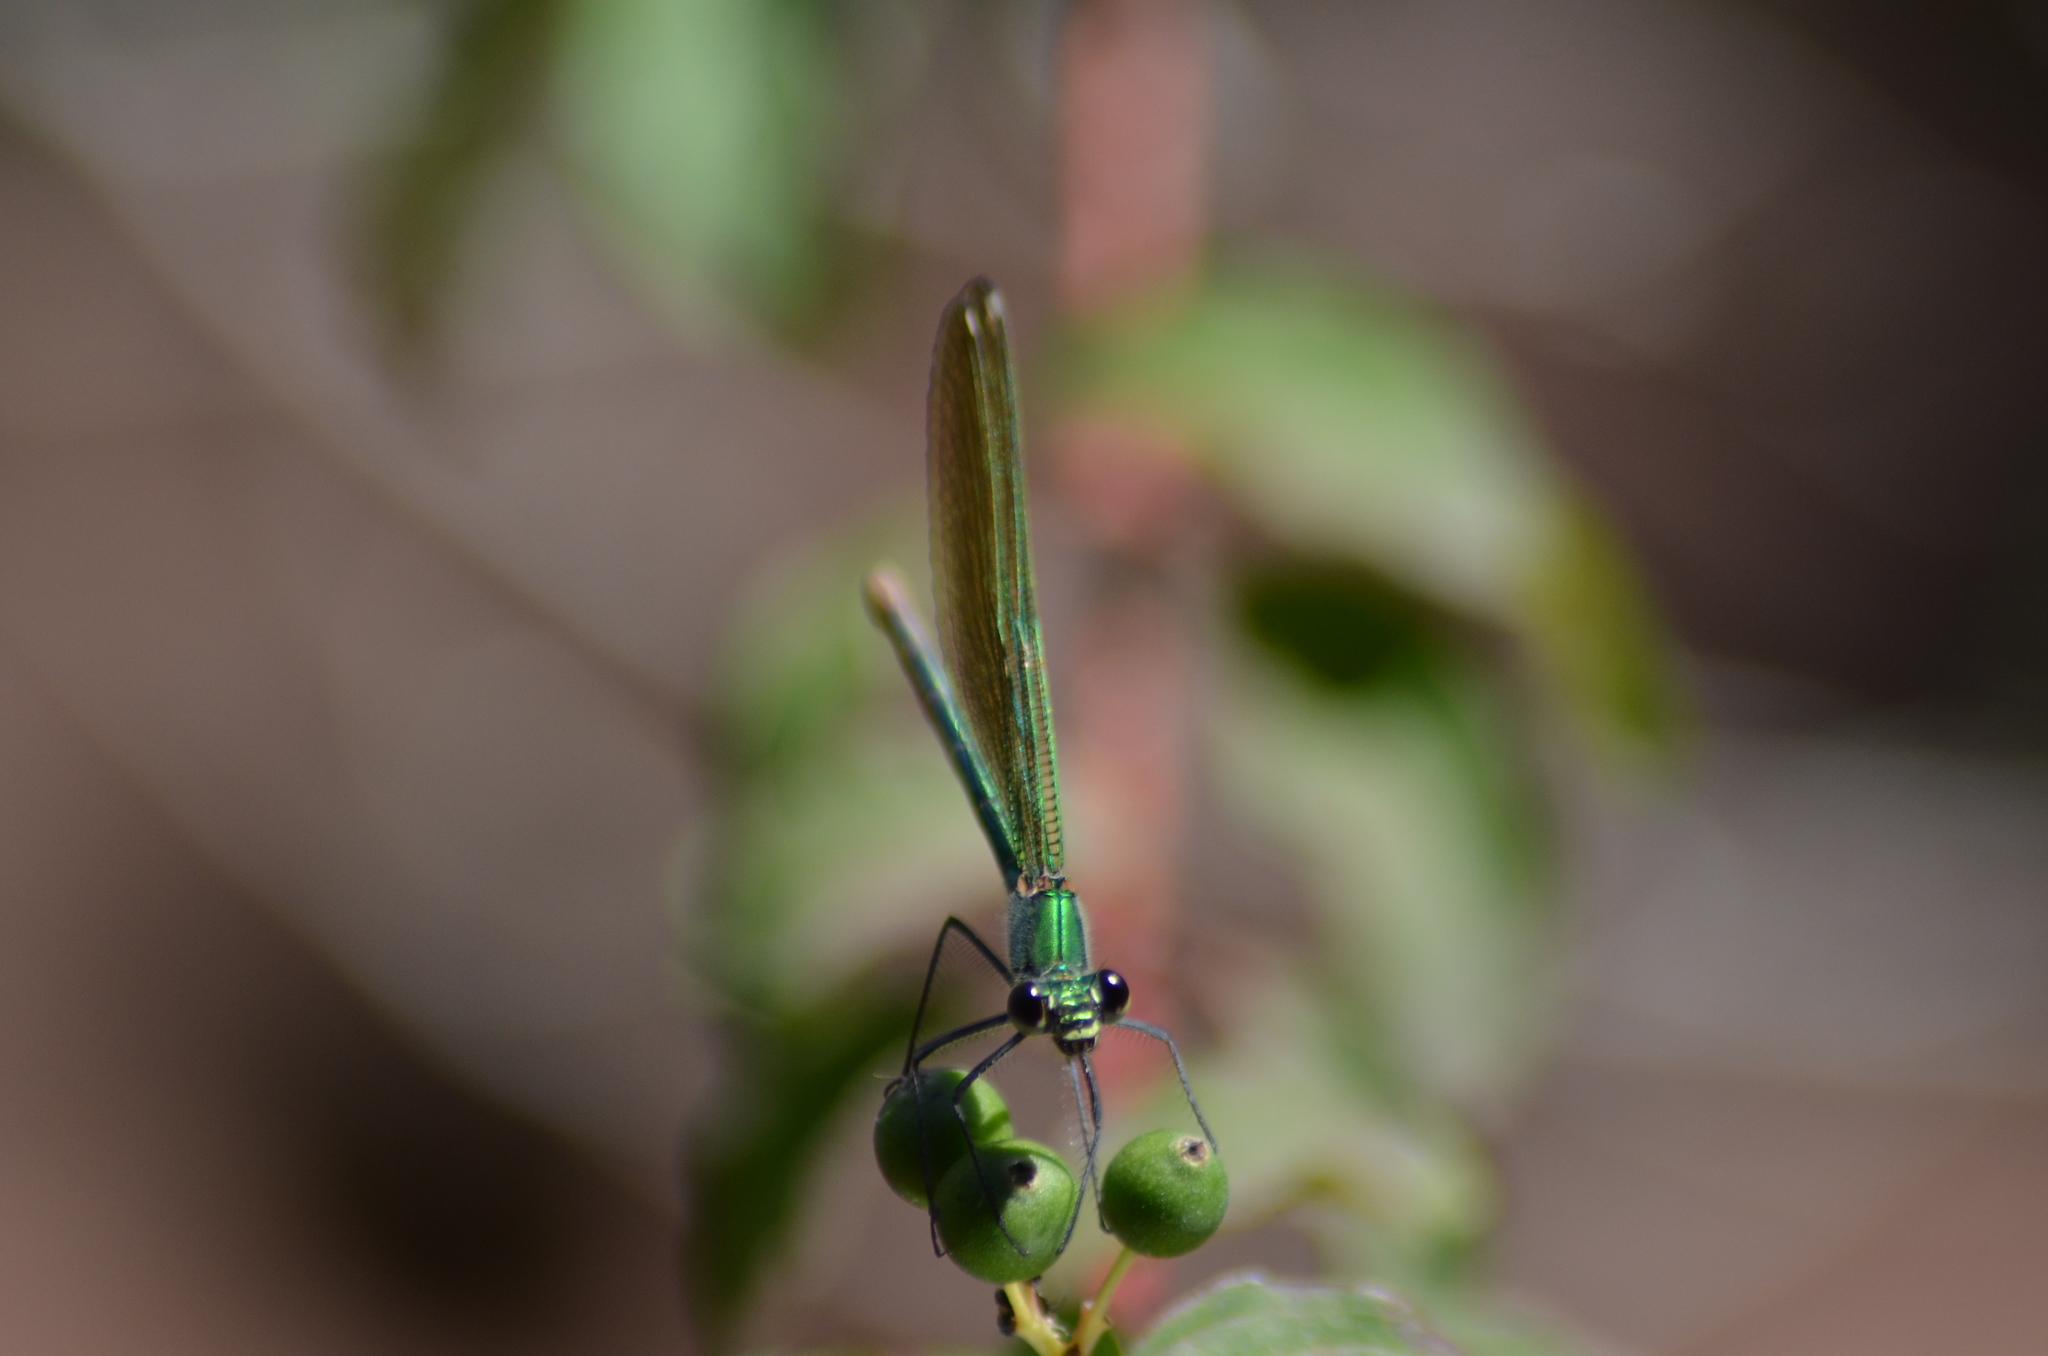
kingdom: Animalia
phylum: Arthropoda
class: Insecta
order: Odonata
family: Calopterygidae
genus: Calopteryx
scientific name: Calopteryx xanthostoma
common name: Western demoiselle
